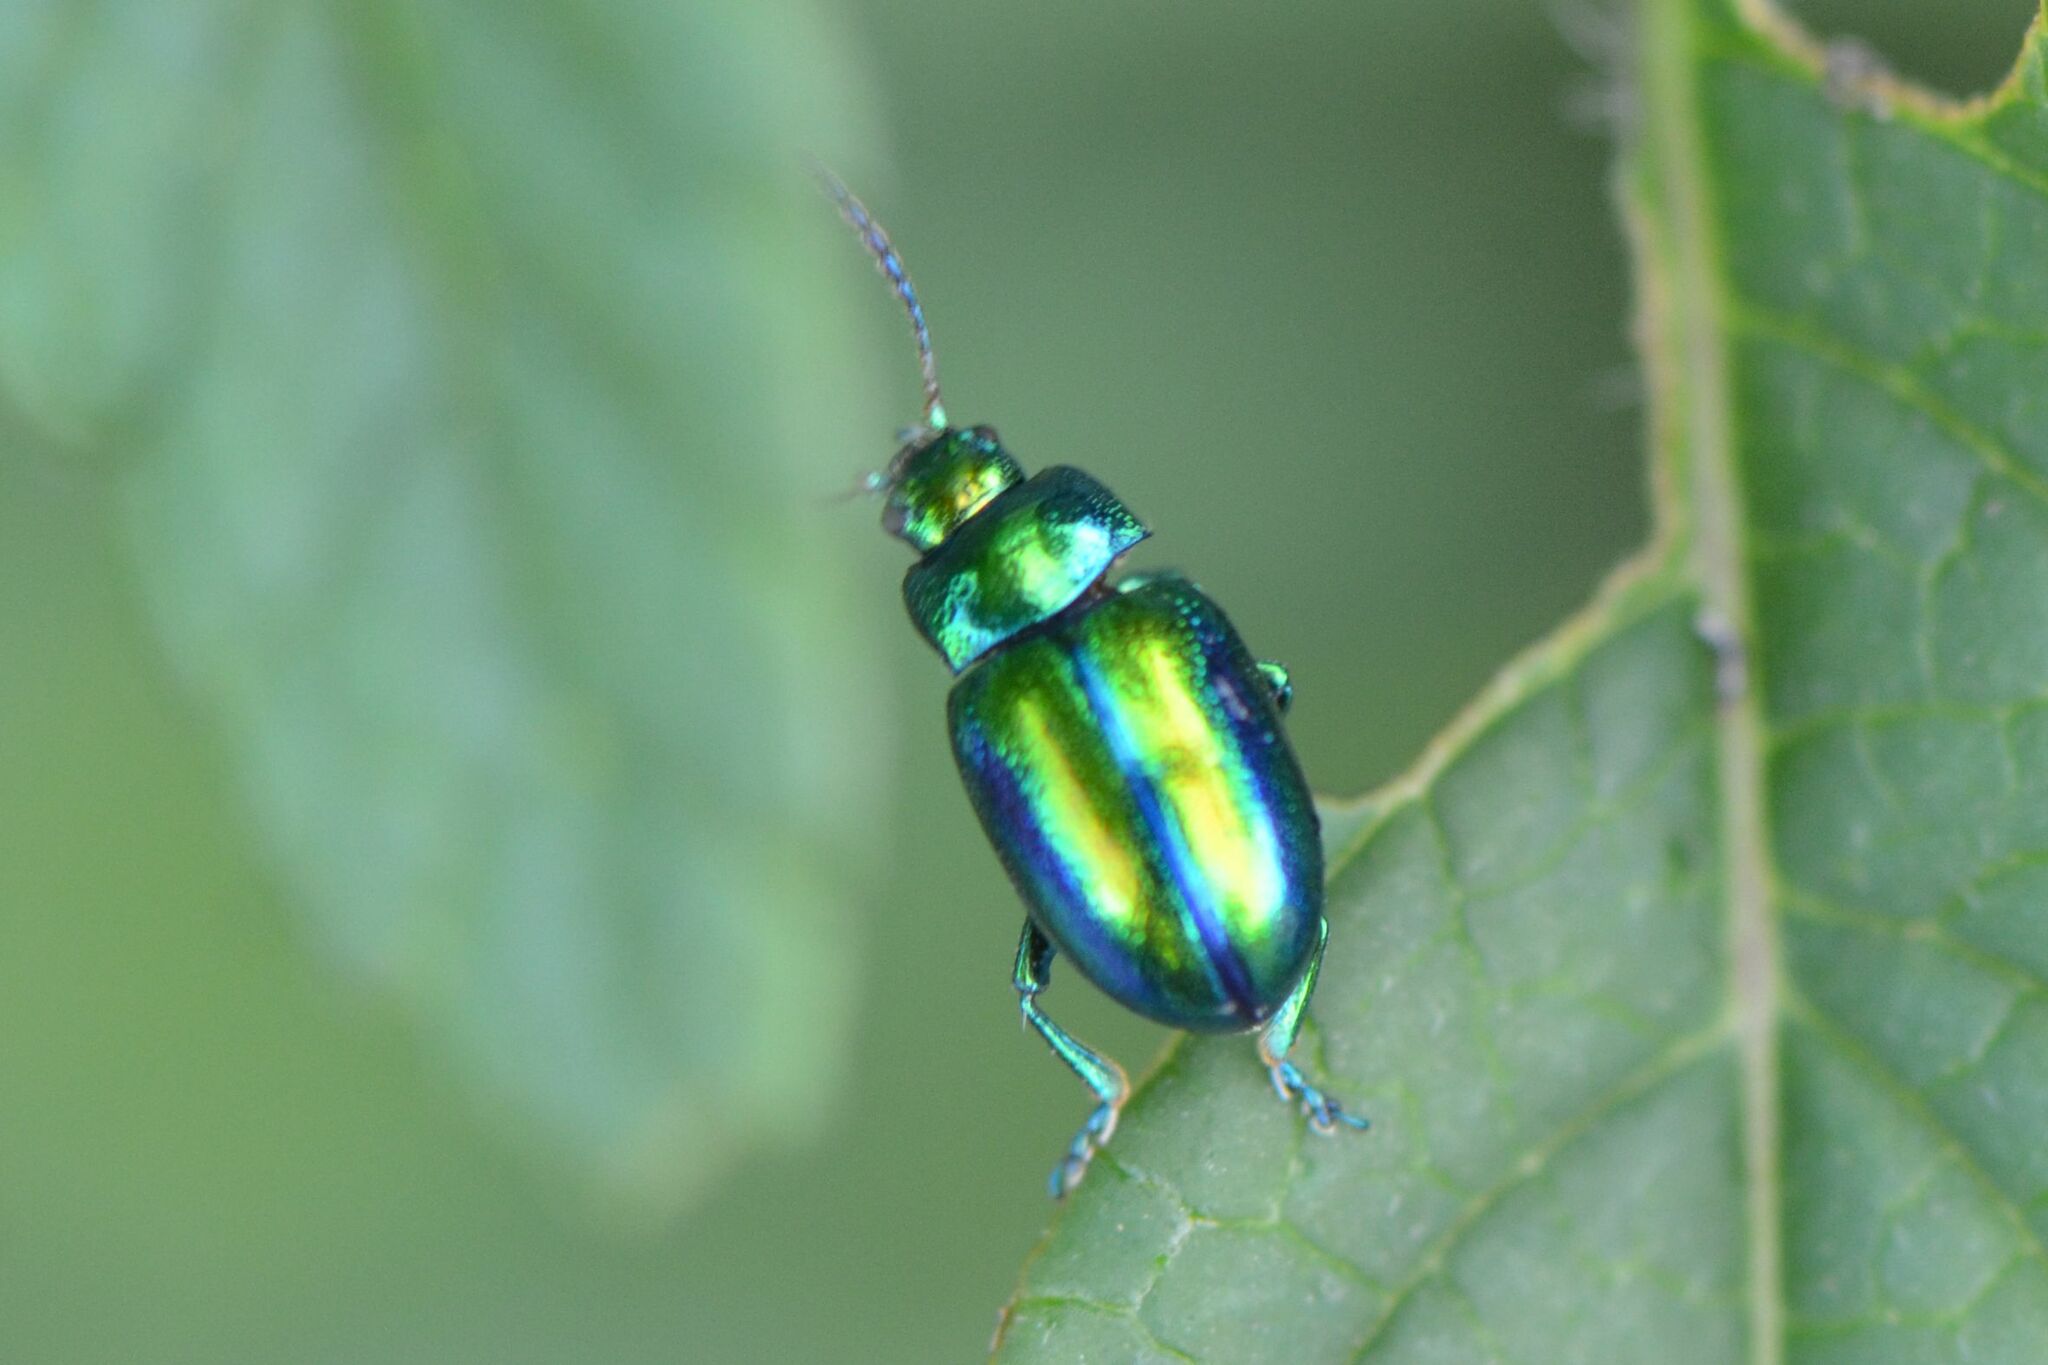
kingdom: Animalia
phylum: Arthropoda
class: Insecta
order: Coleoptera
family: Chrysomelidae
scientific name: Chrysomelidae
